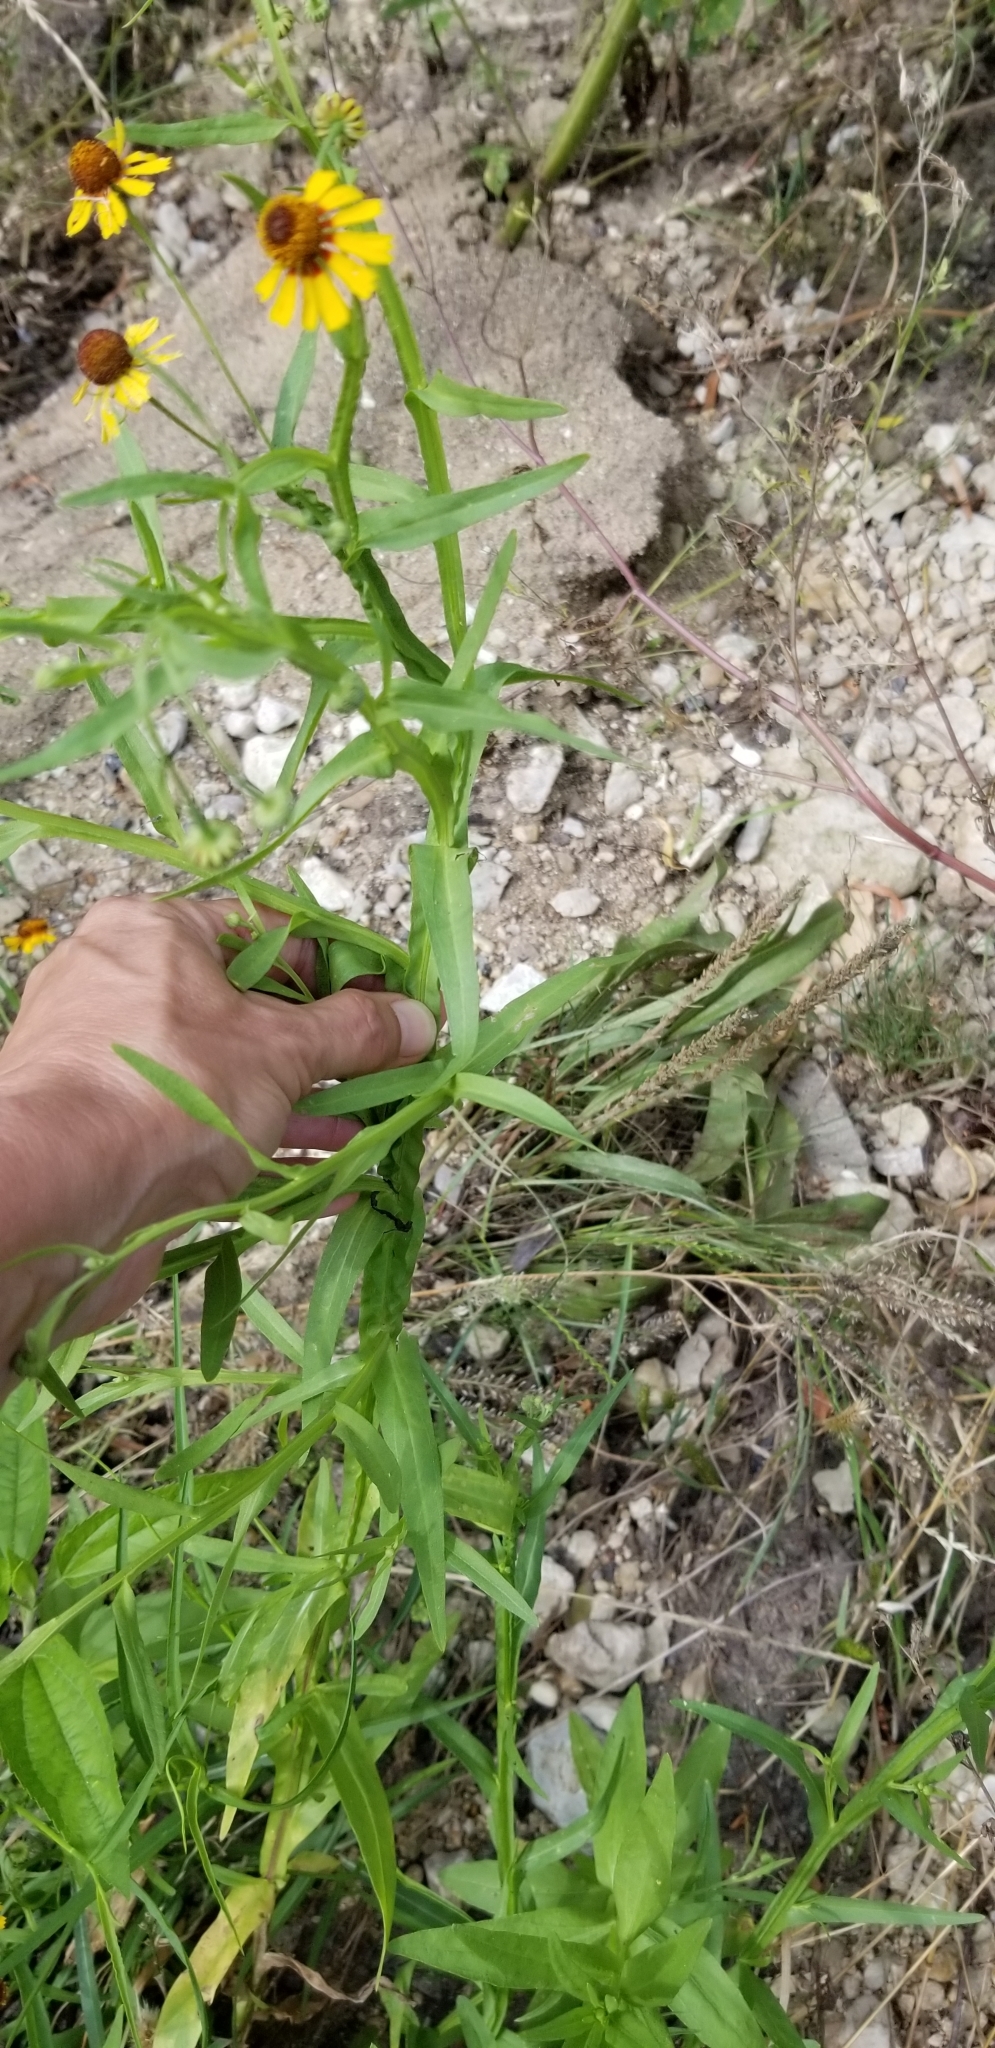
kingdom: Plantae
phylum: Tracheophyta
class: Magnoliopsida
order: Asterales
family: Asteraceae
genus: Helenium
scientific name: Helenium elegans
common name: Pretty sneezeweed
